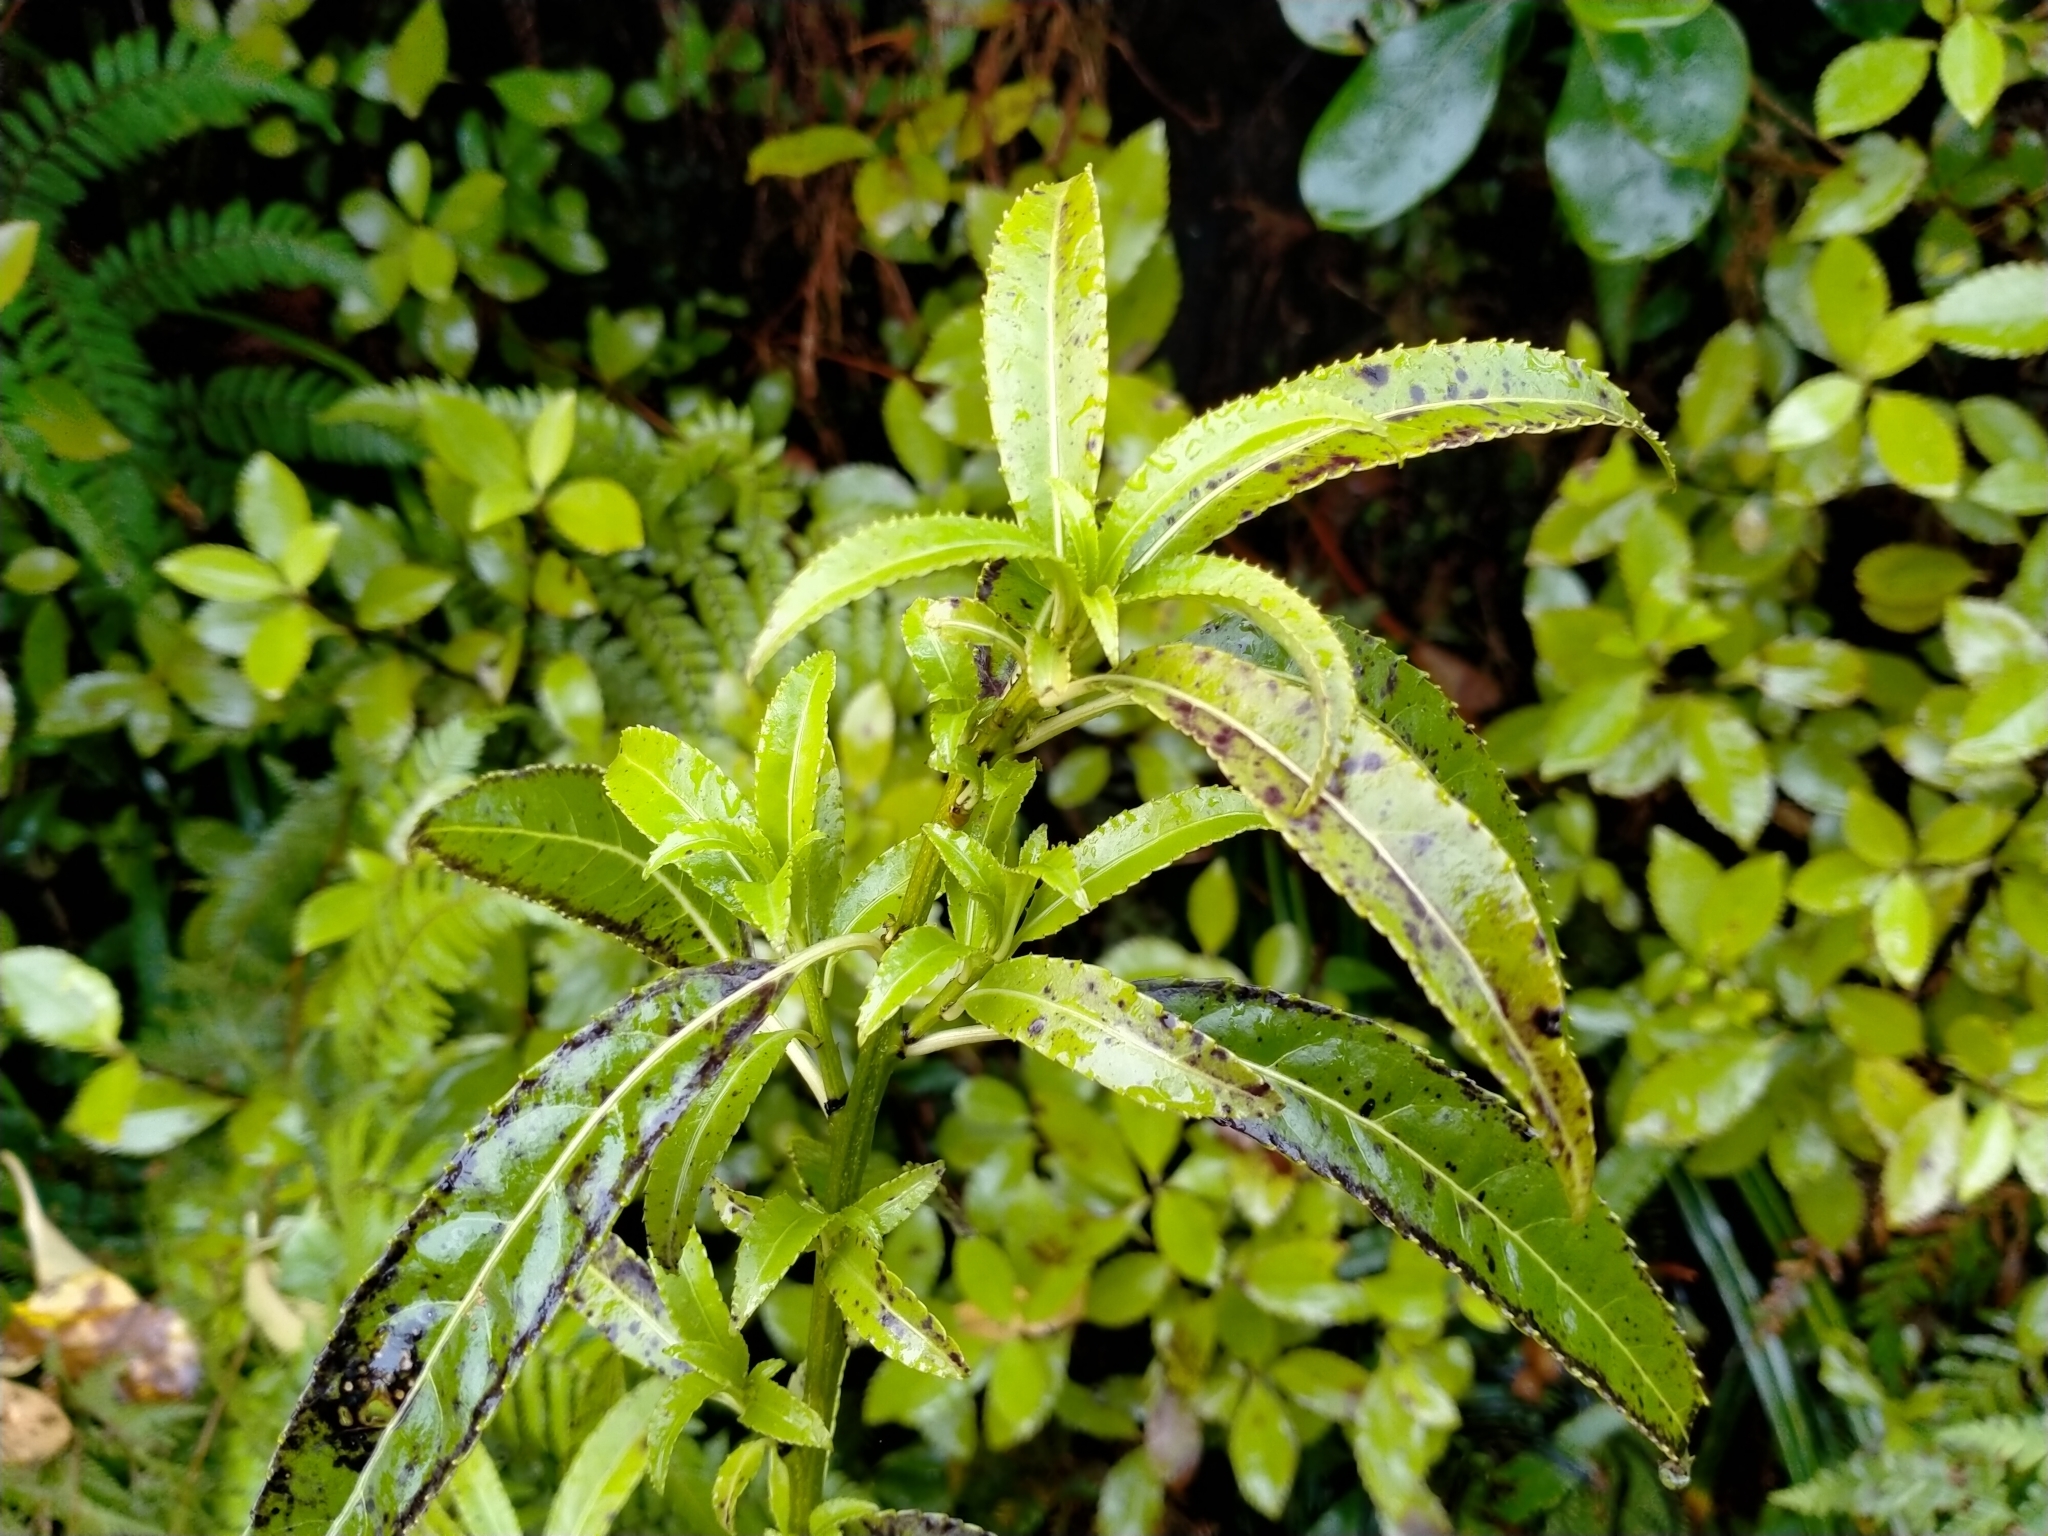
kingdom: Plantae
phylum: Tracheophyta
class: Magnoliopsida
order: Malpighiales
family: Violaceae
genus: Melicytus
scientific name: Melicytus lanceolatus
